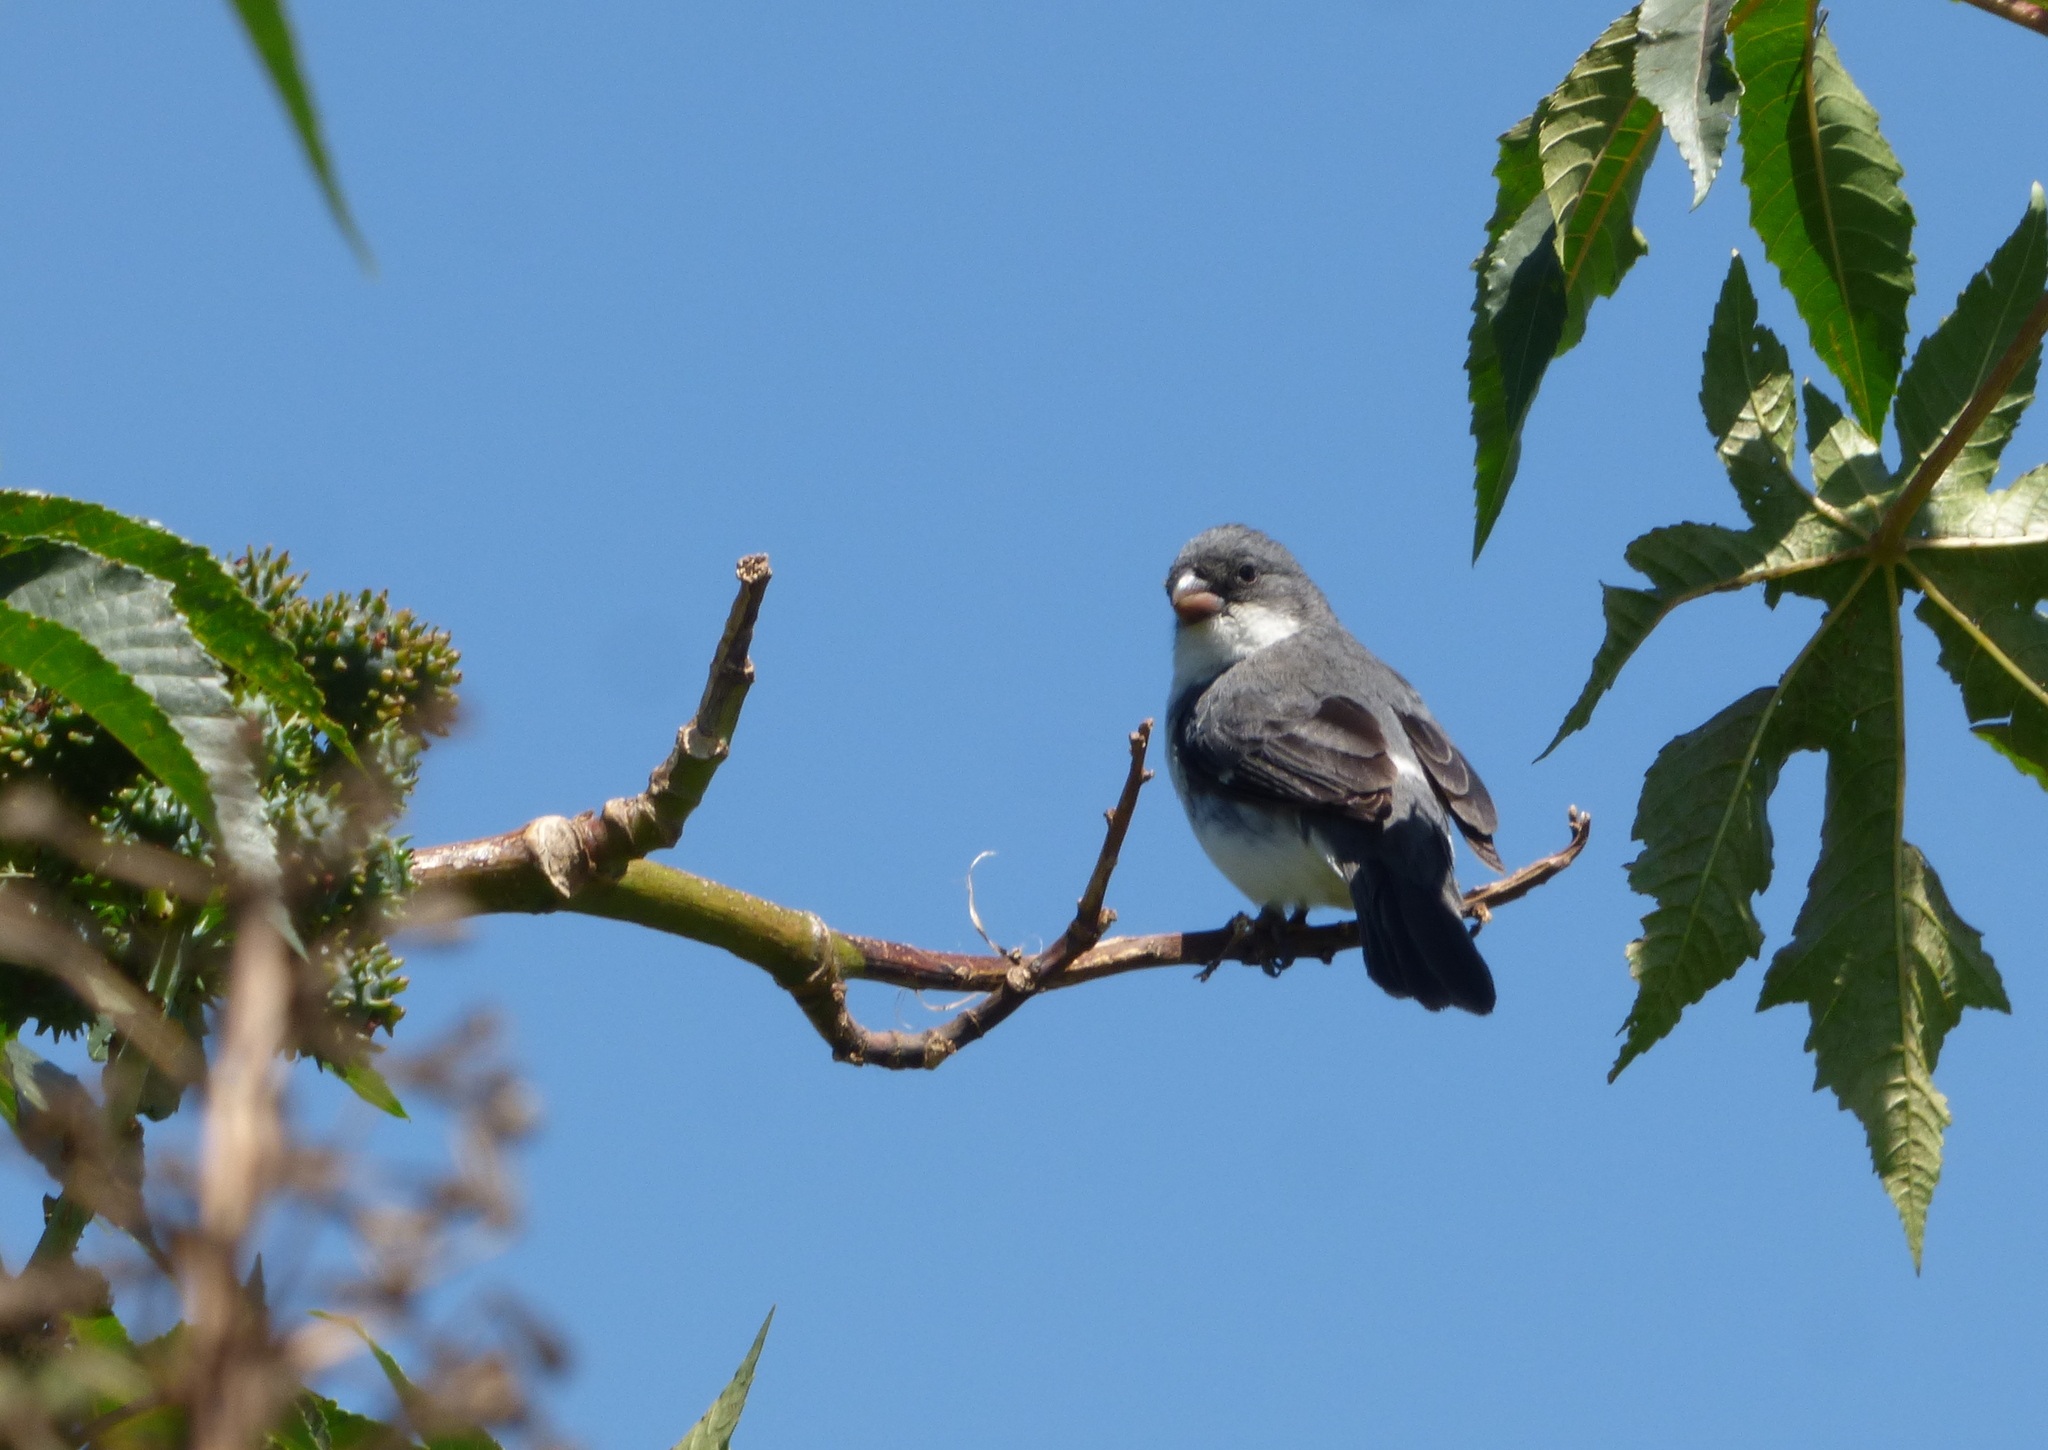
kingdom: Animalia
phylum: Chordata
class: Aves
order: Passeriformes
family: Thraupidae
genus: Sporophila
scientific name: Sporophila leucoptera
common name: White-bellied seedeater
